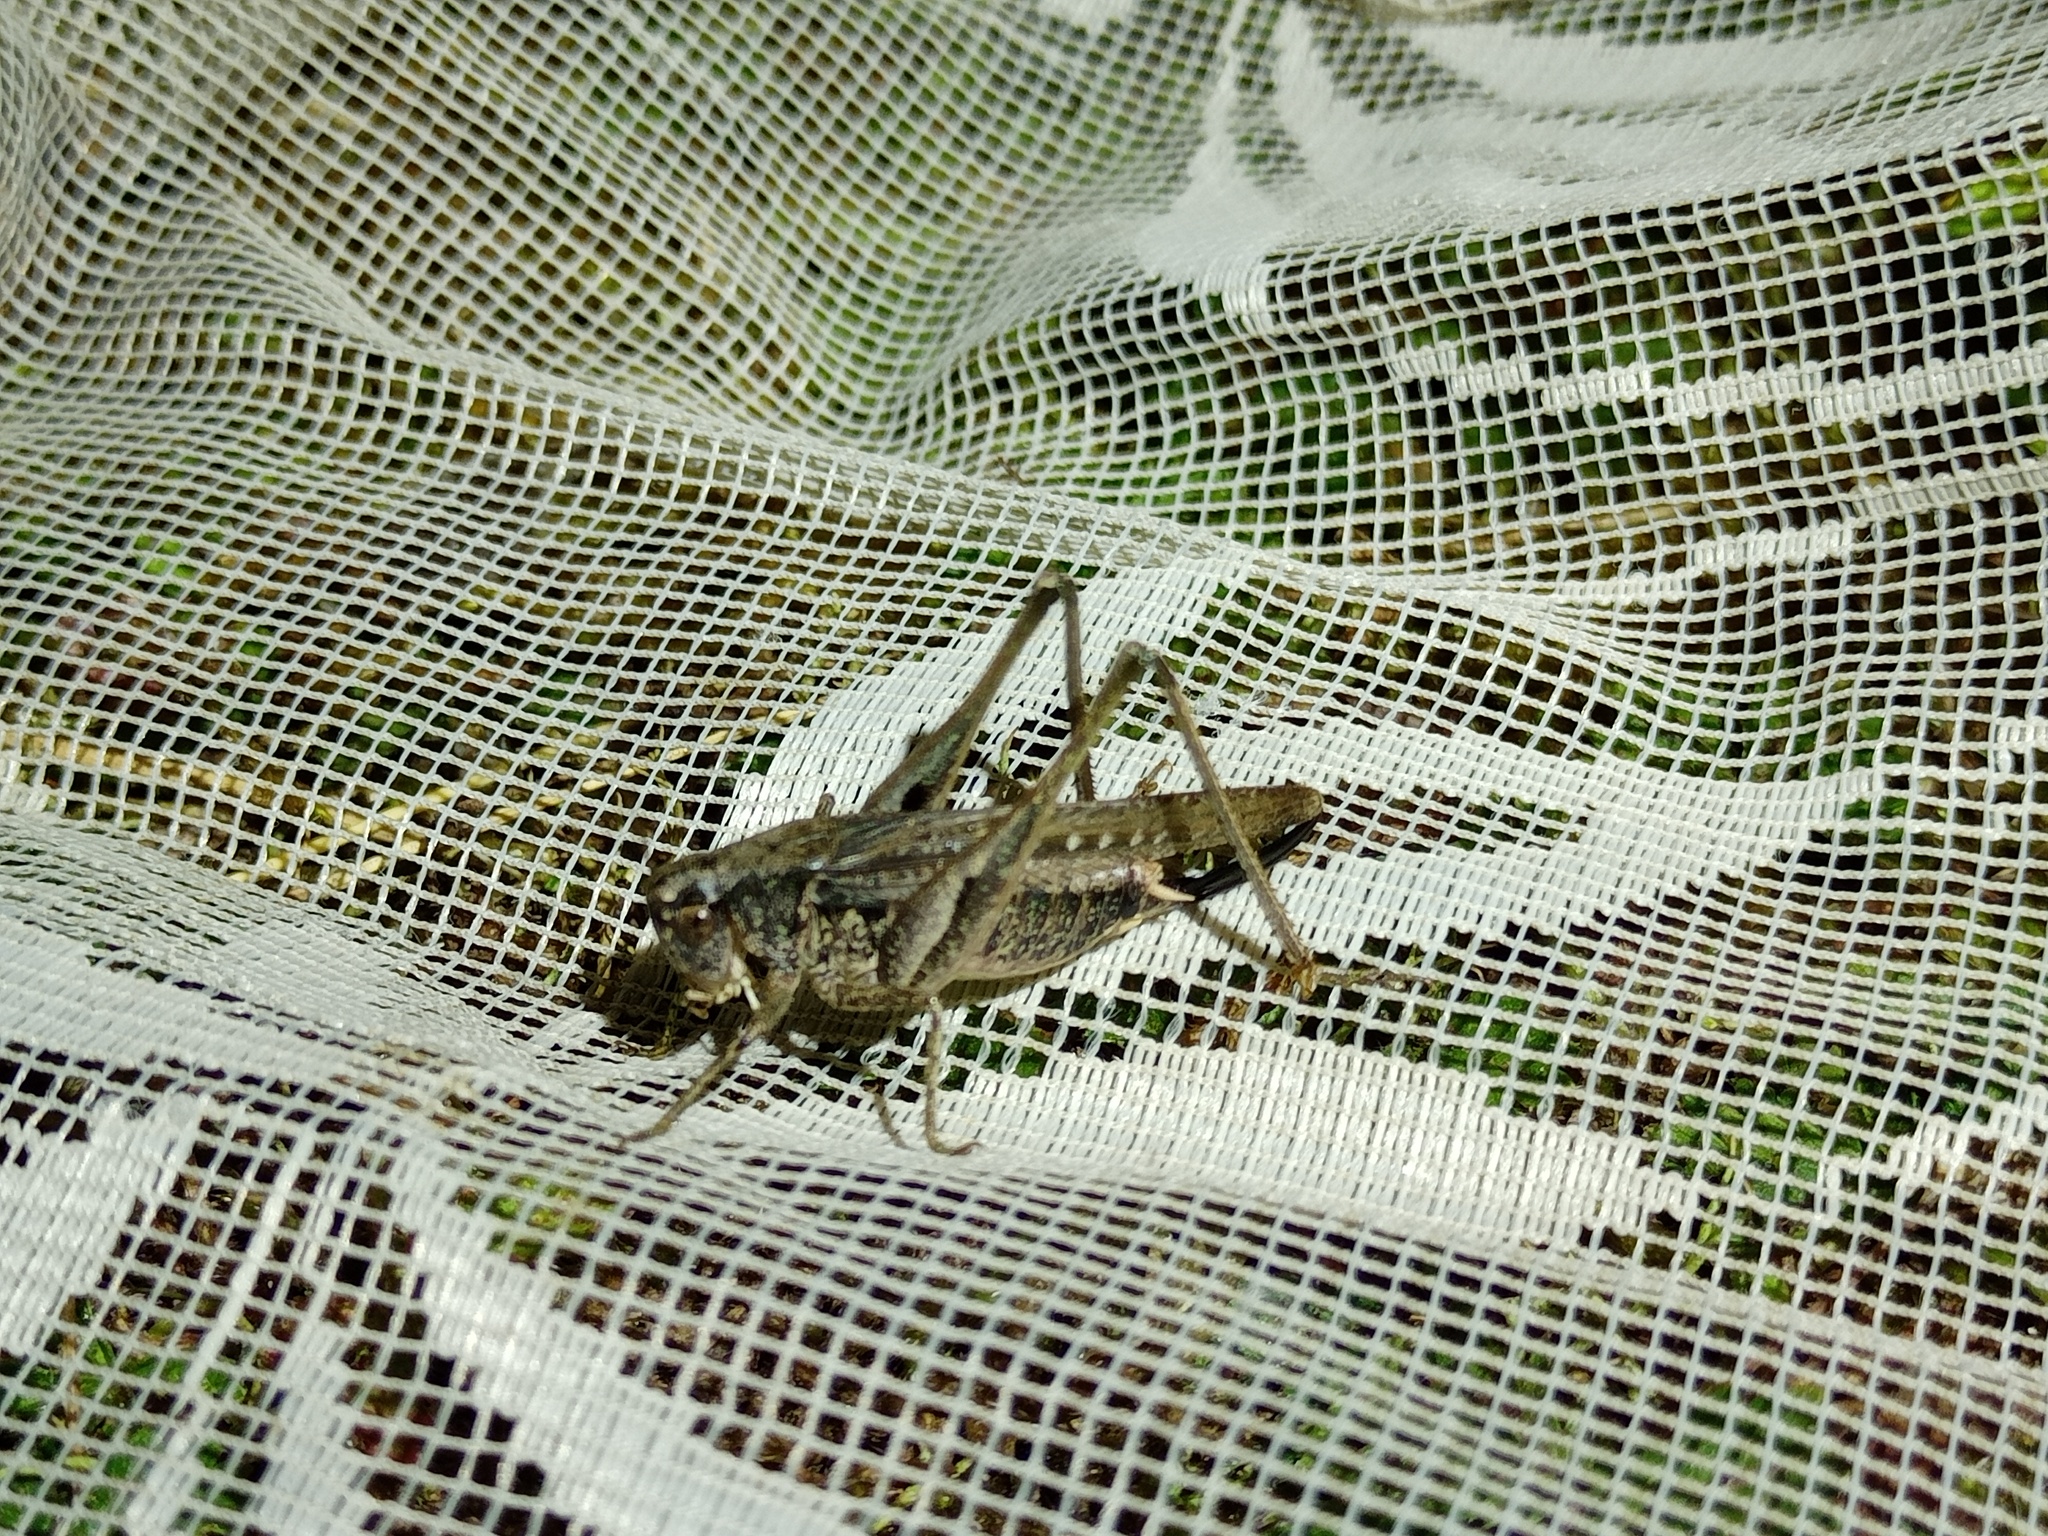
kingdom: Animalia
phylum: Arthropoda
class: Insecta
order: Orthoptera
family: Tettigoniidae
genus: Platycleis
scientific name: Platycleis albopunctata
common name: Grey bush-cricket
